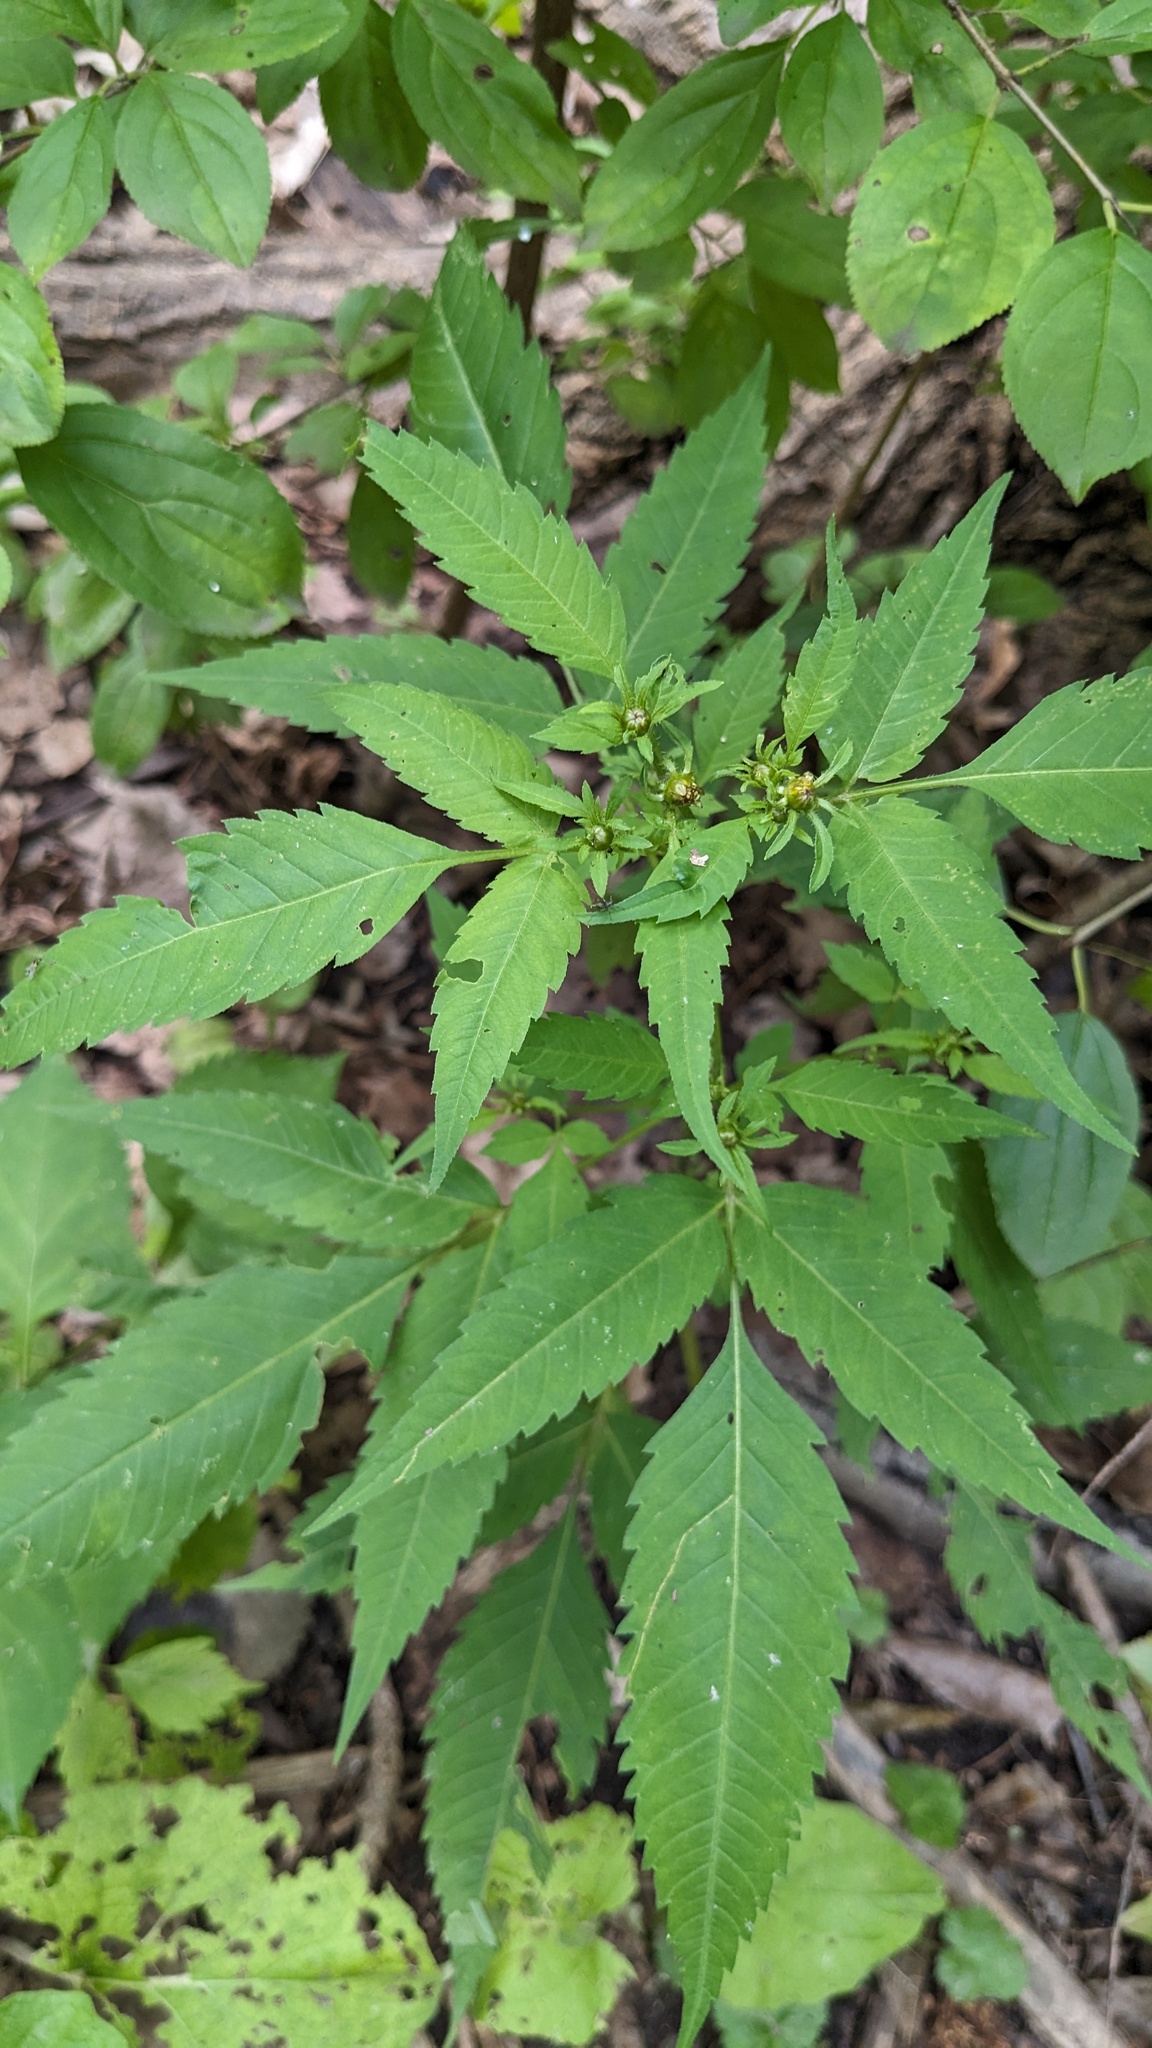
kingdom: Plantae
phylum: Tracheophyta
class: Magnoliopsida
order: Asterales
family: Asteraceae
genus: Bidens
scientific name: Bidens frondosa
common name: Beggarticks
